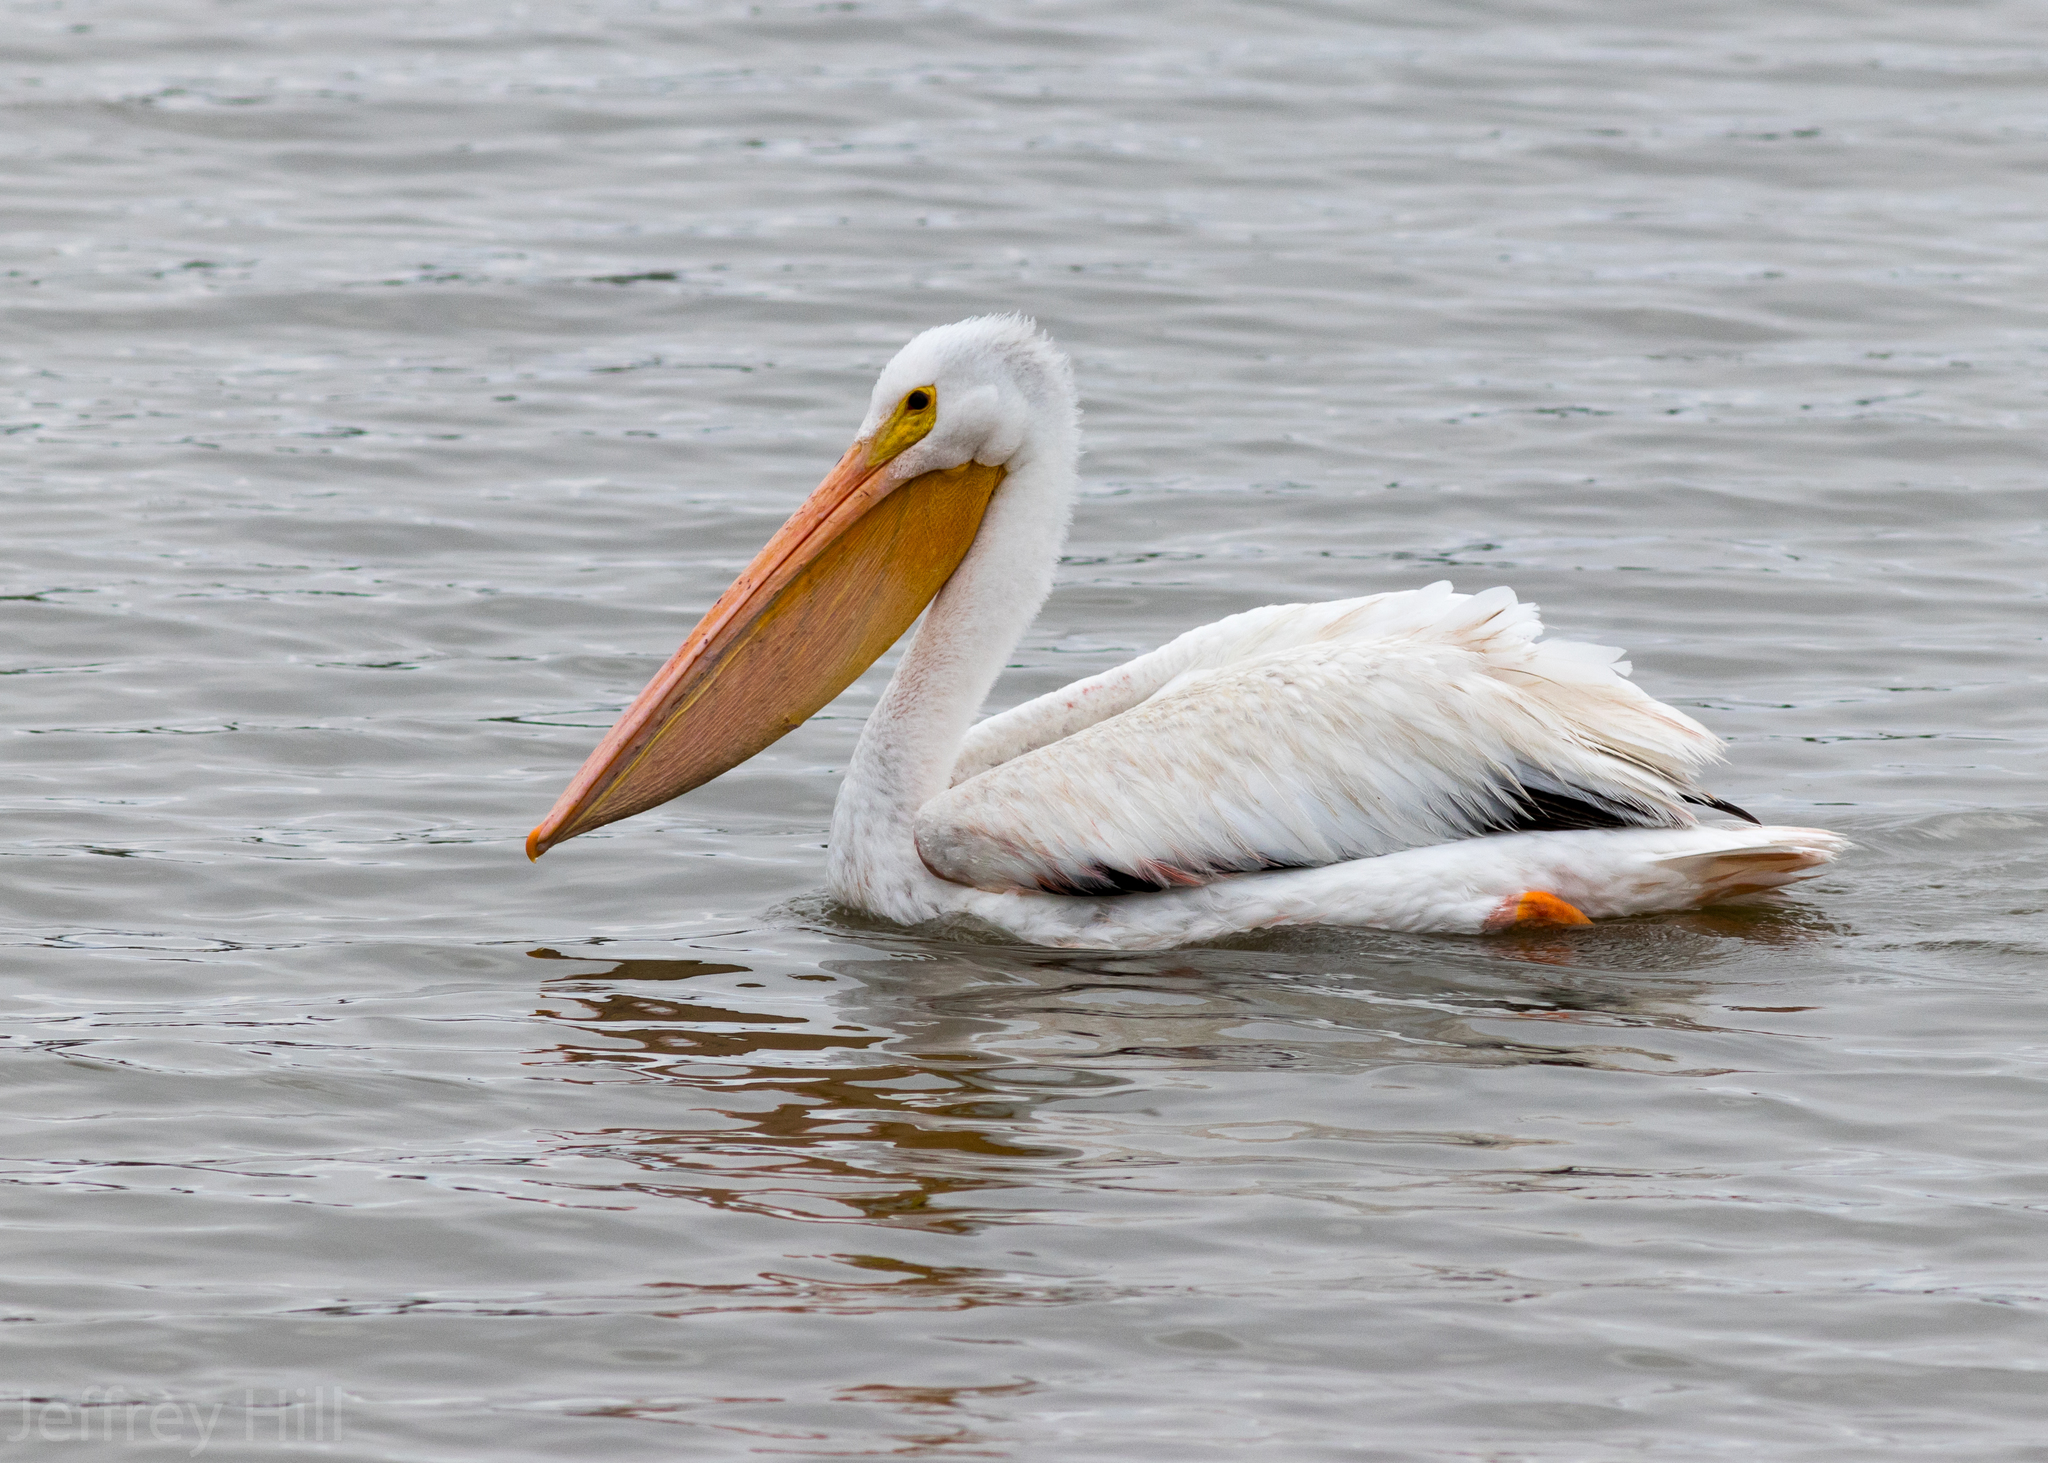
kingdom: Animalia
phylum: Chordata
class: Aves
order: Pelecaniformes
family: Pelecanidae
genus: Pelecanus
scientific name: Pelecanus erythrorhynchos
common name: American white pelican
